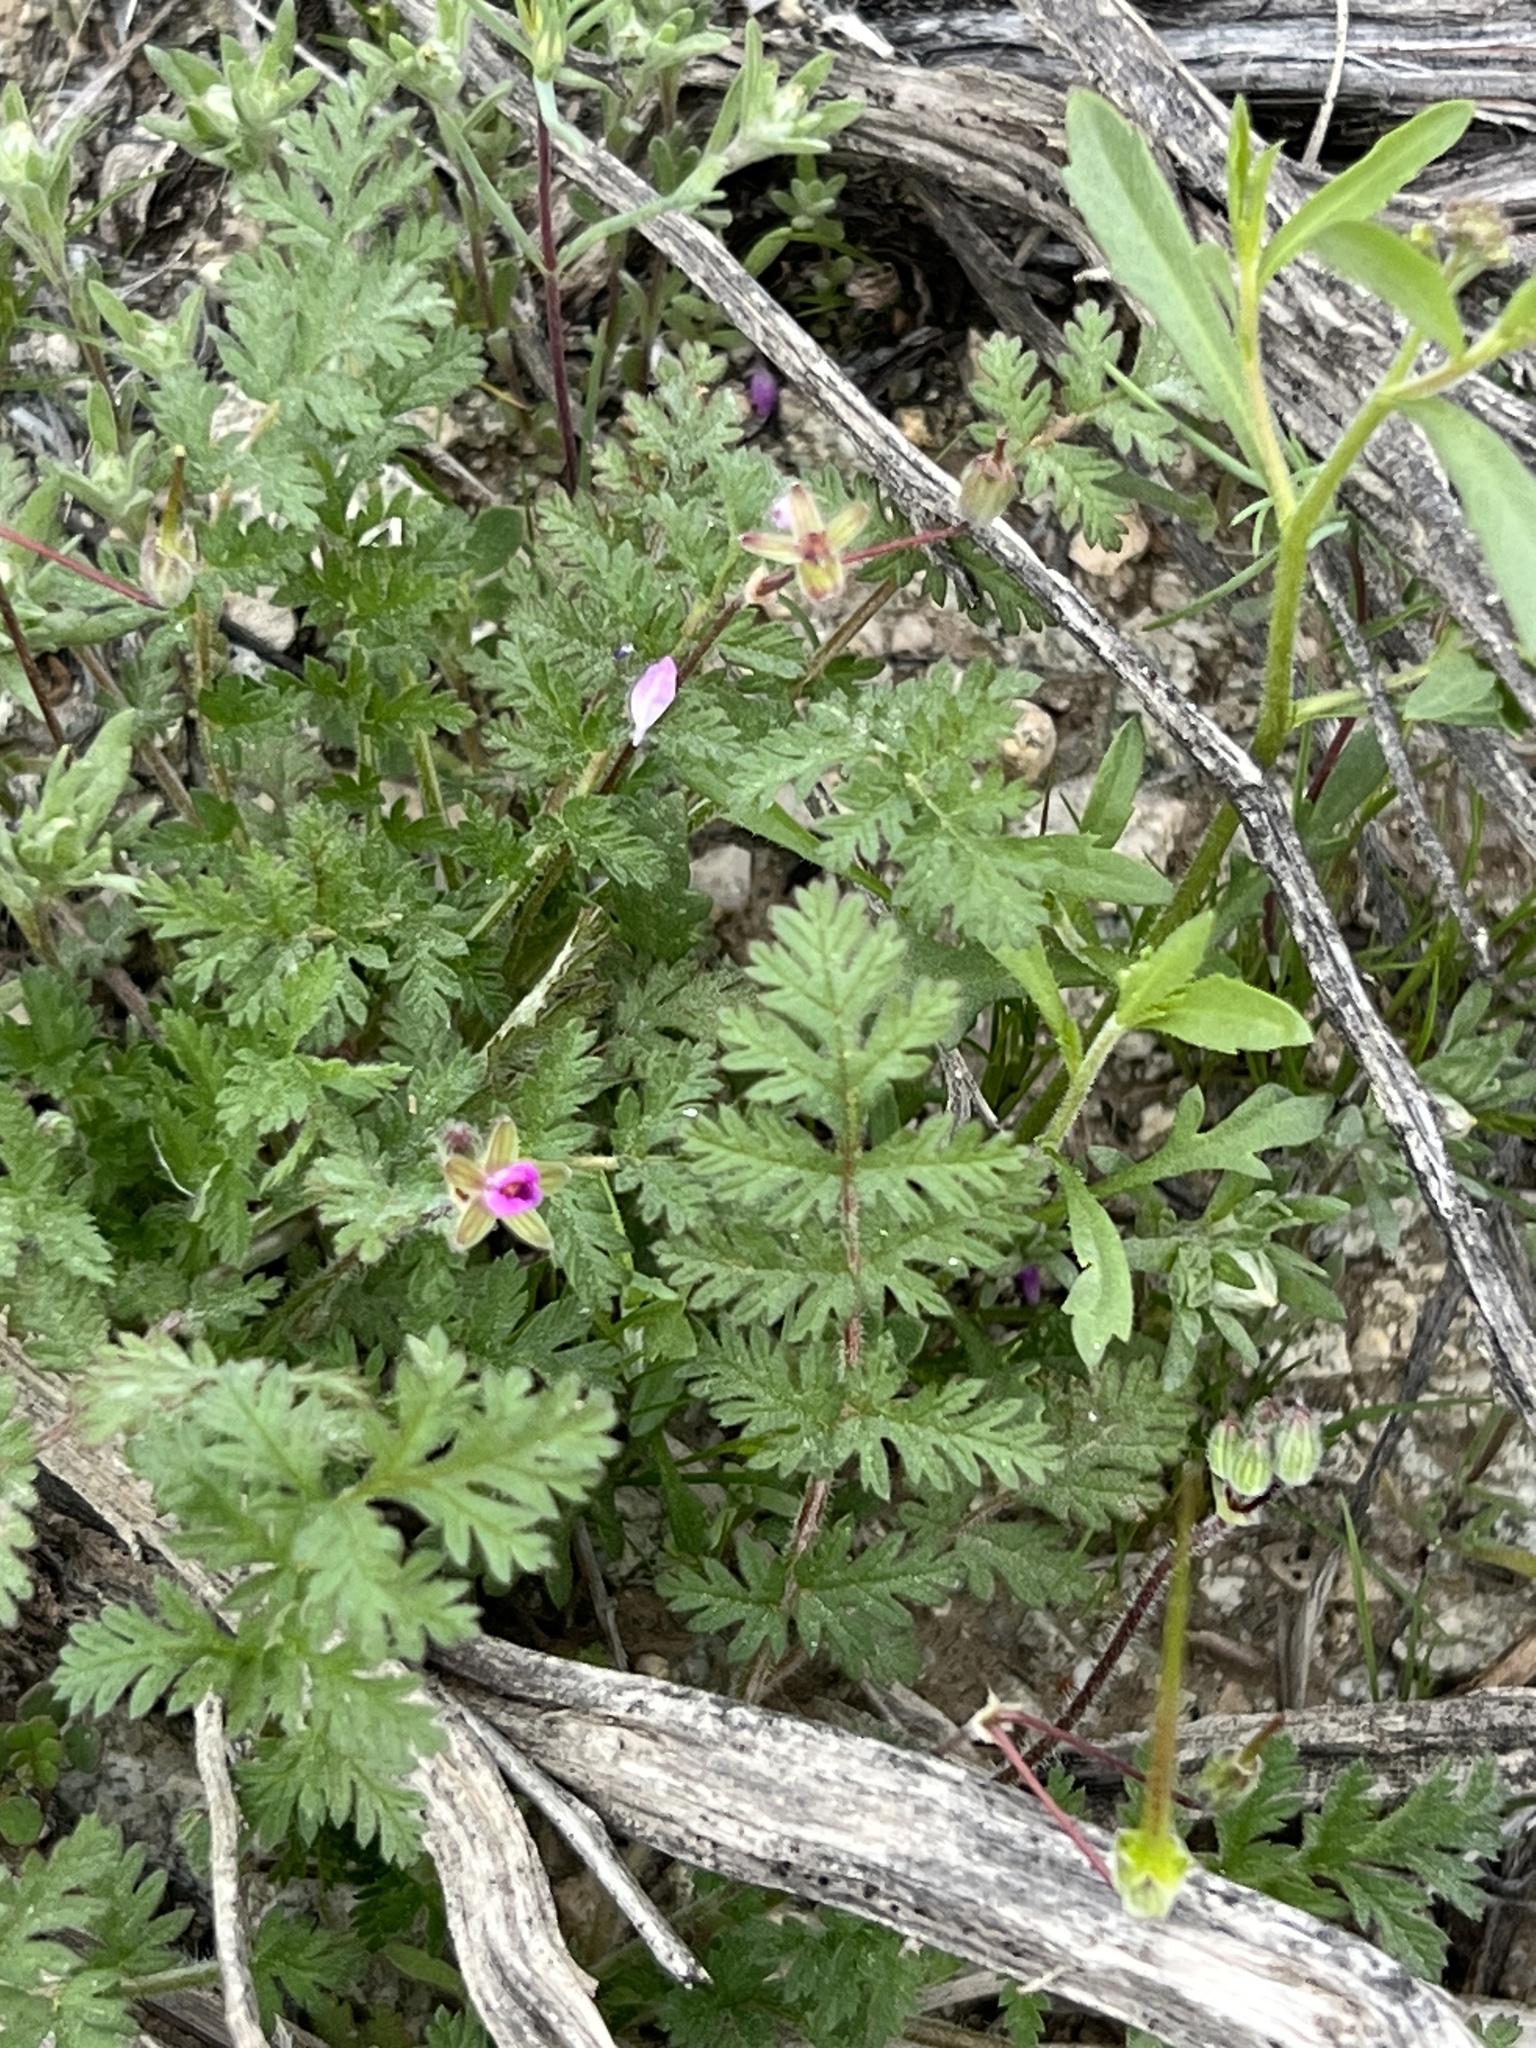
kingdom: Plantae
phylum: Tracheophyta
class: Magnoliopsida
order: Geraniales
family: Geraniaceae
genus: Erodium
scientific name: Erodium cicutarium
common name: Common stork's-bill
